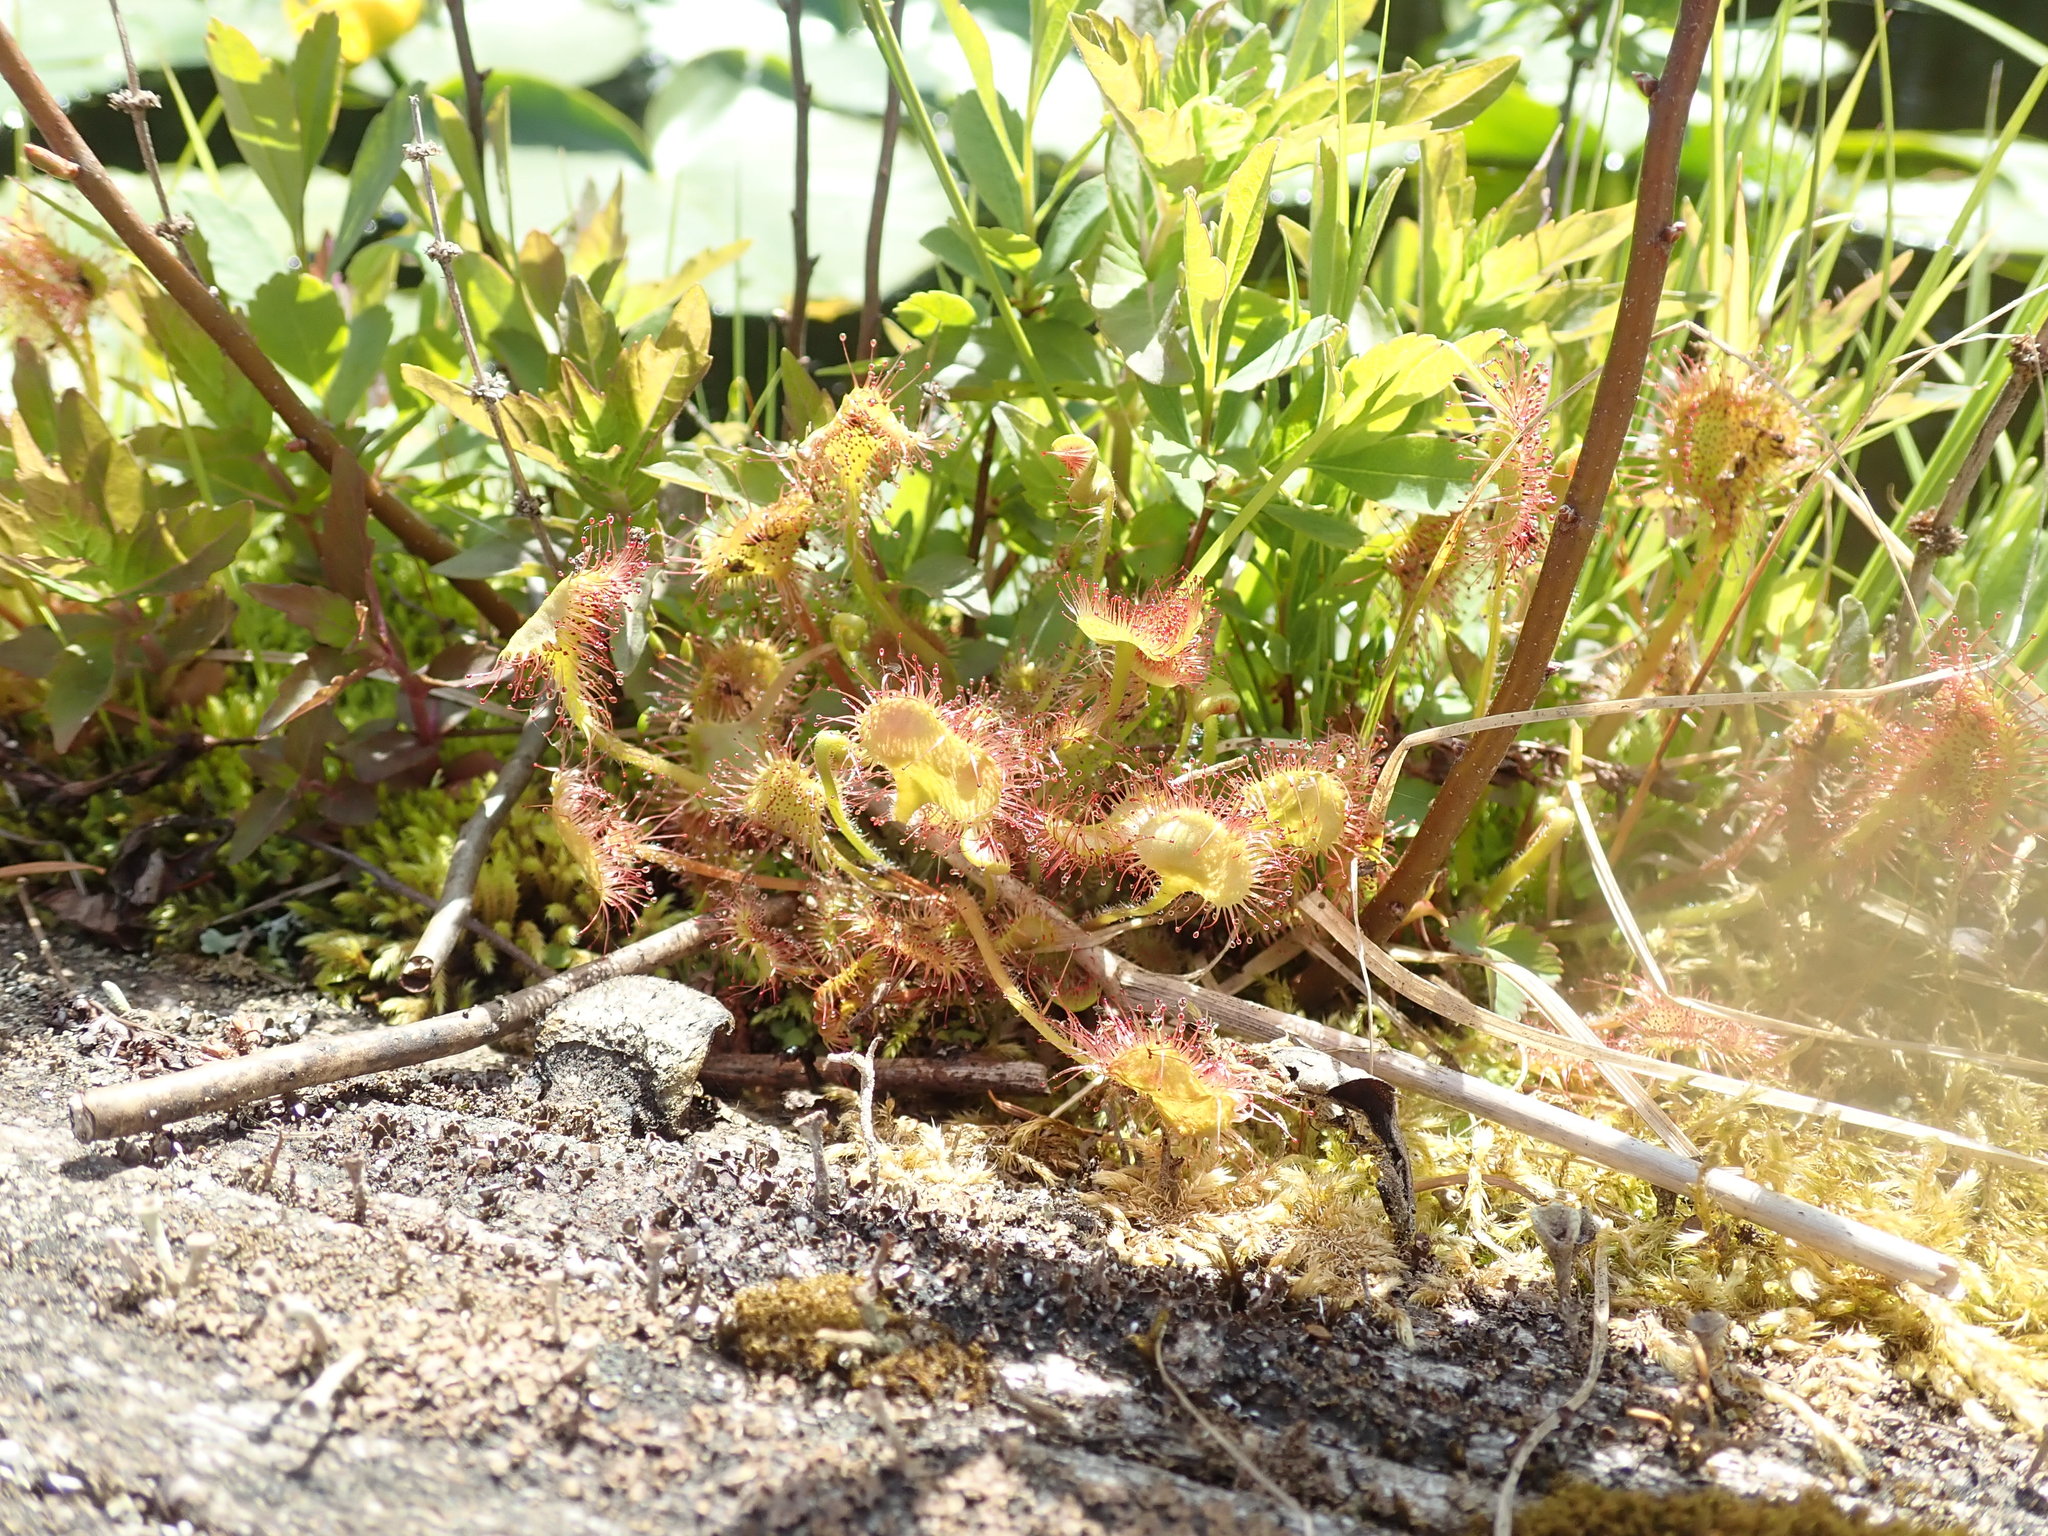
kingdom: Plantae
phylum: Tracheophyta
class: Magnoliopsida
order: Caryophyllales
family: Droseraceae
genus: Drosera
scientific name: Drosera rotundifolia
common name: Round-leaved sundew
